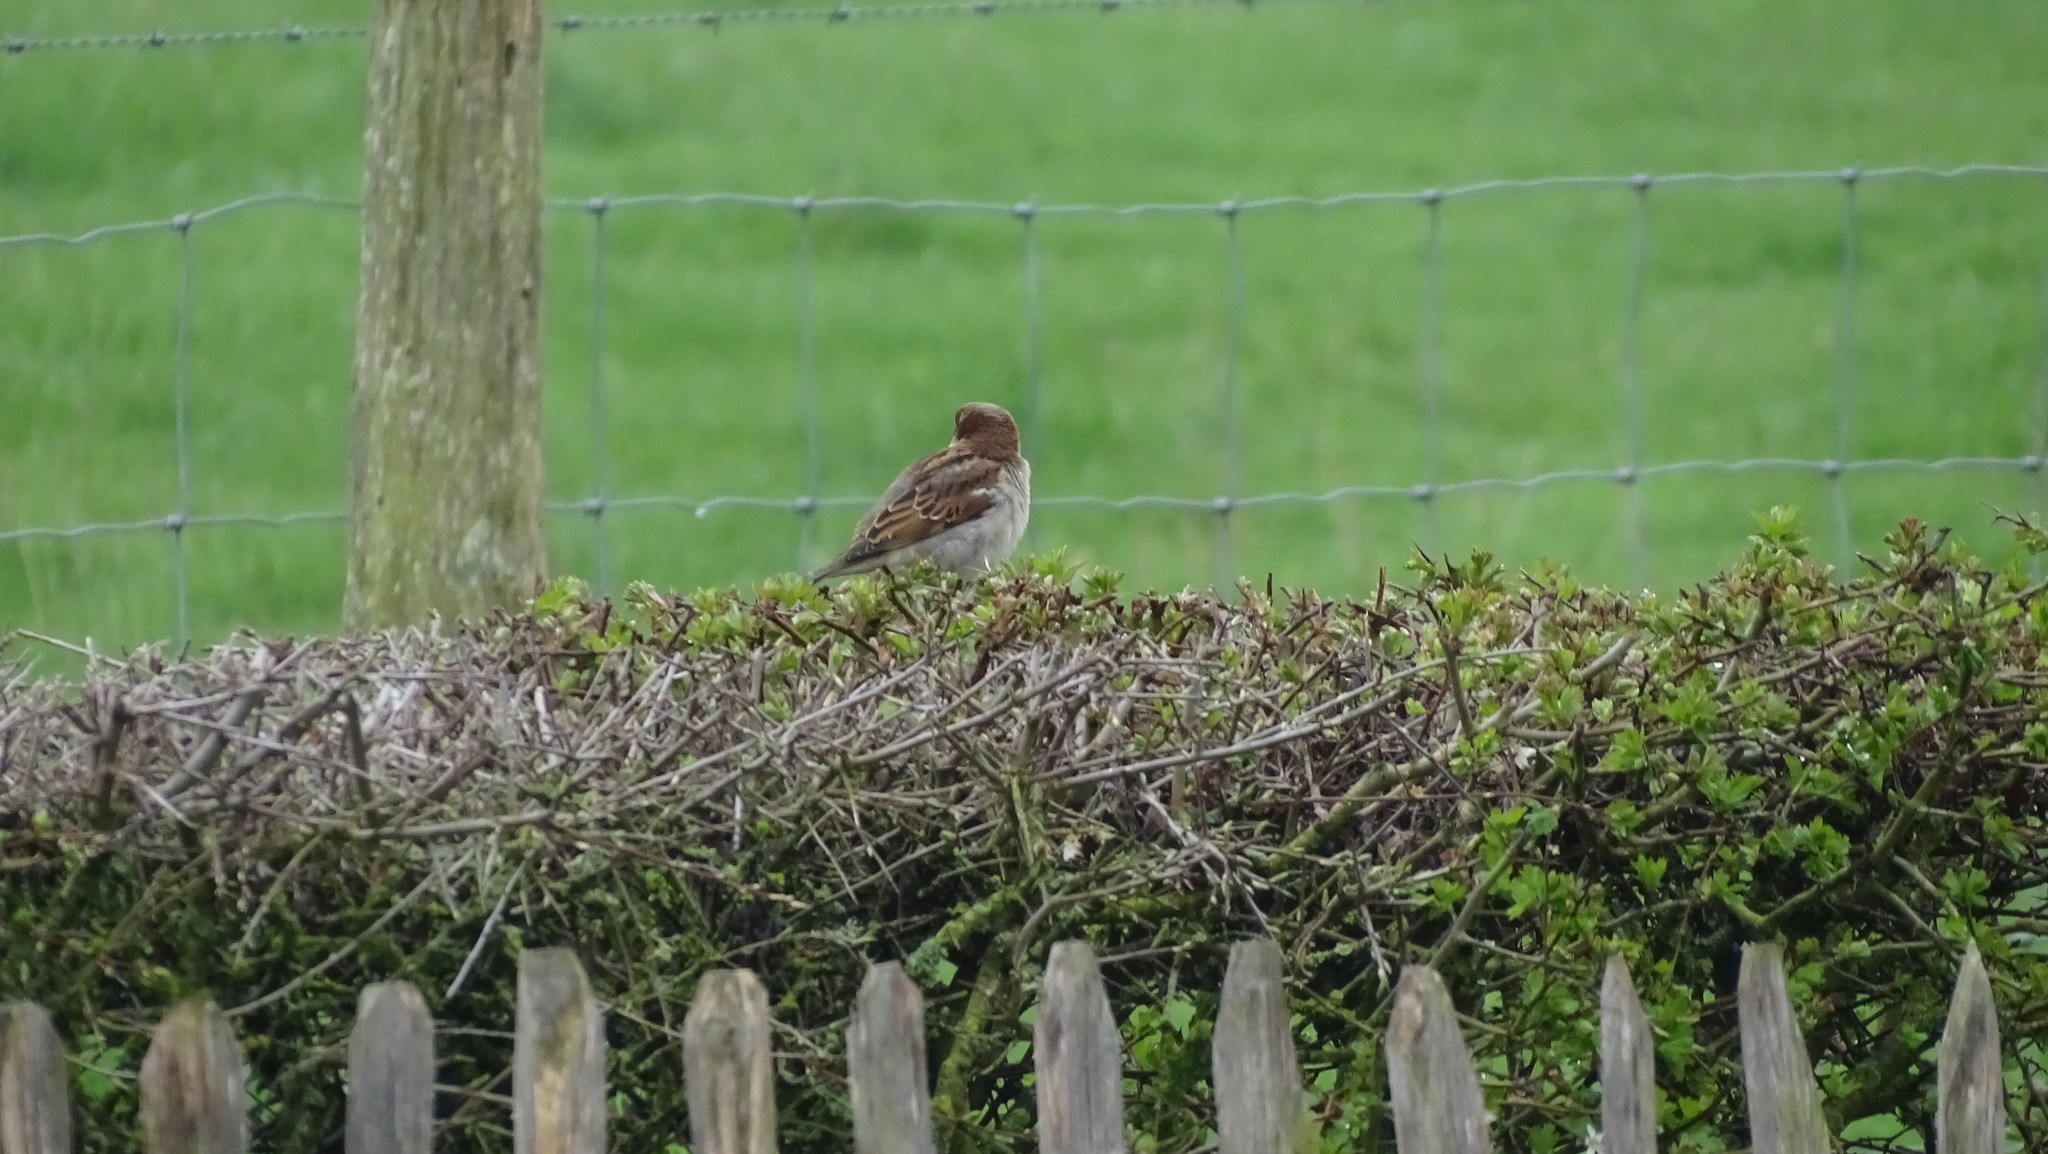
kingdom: Animalia
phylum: Chordata
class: Aves
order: Passeriformes
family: Passeridae
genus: Passer
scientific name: Passer domesticus
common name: House sparrow
